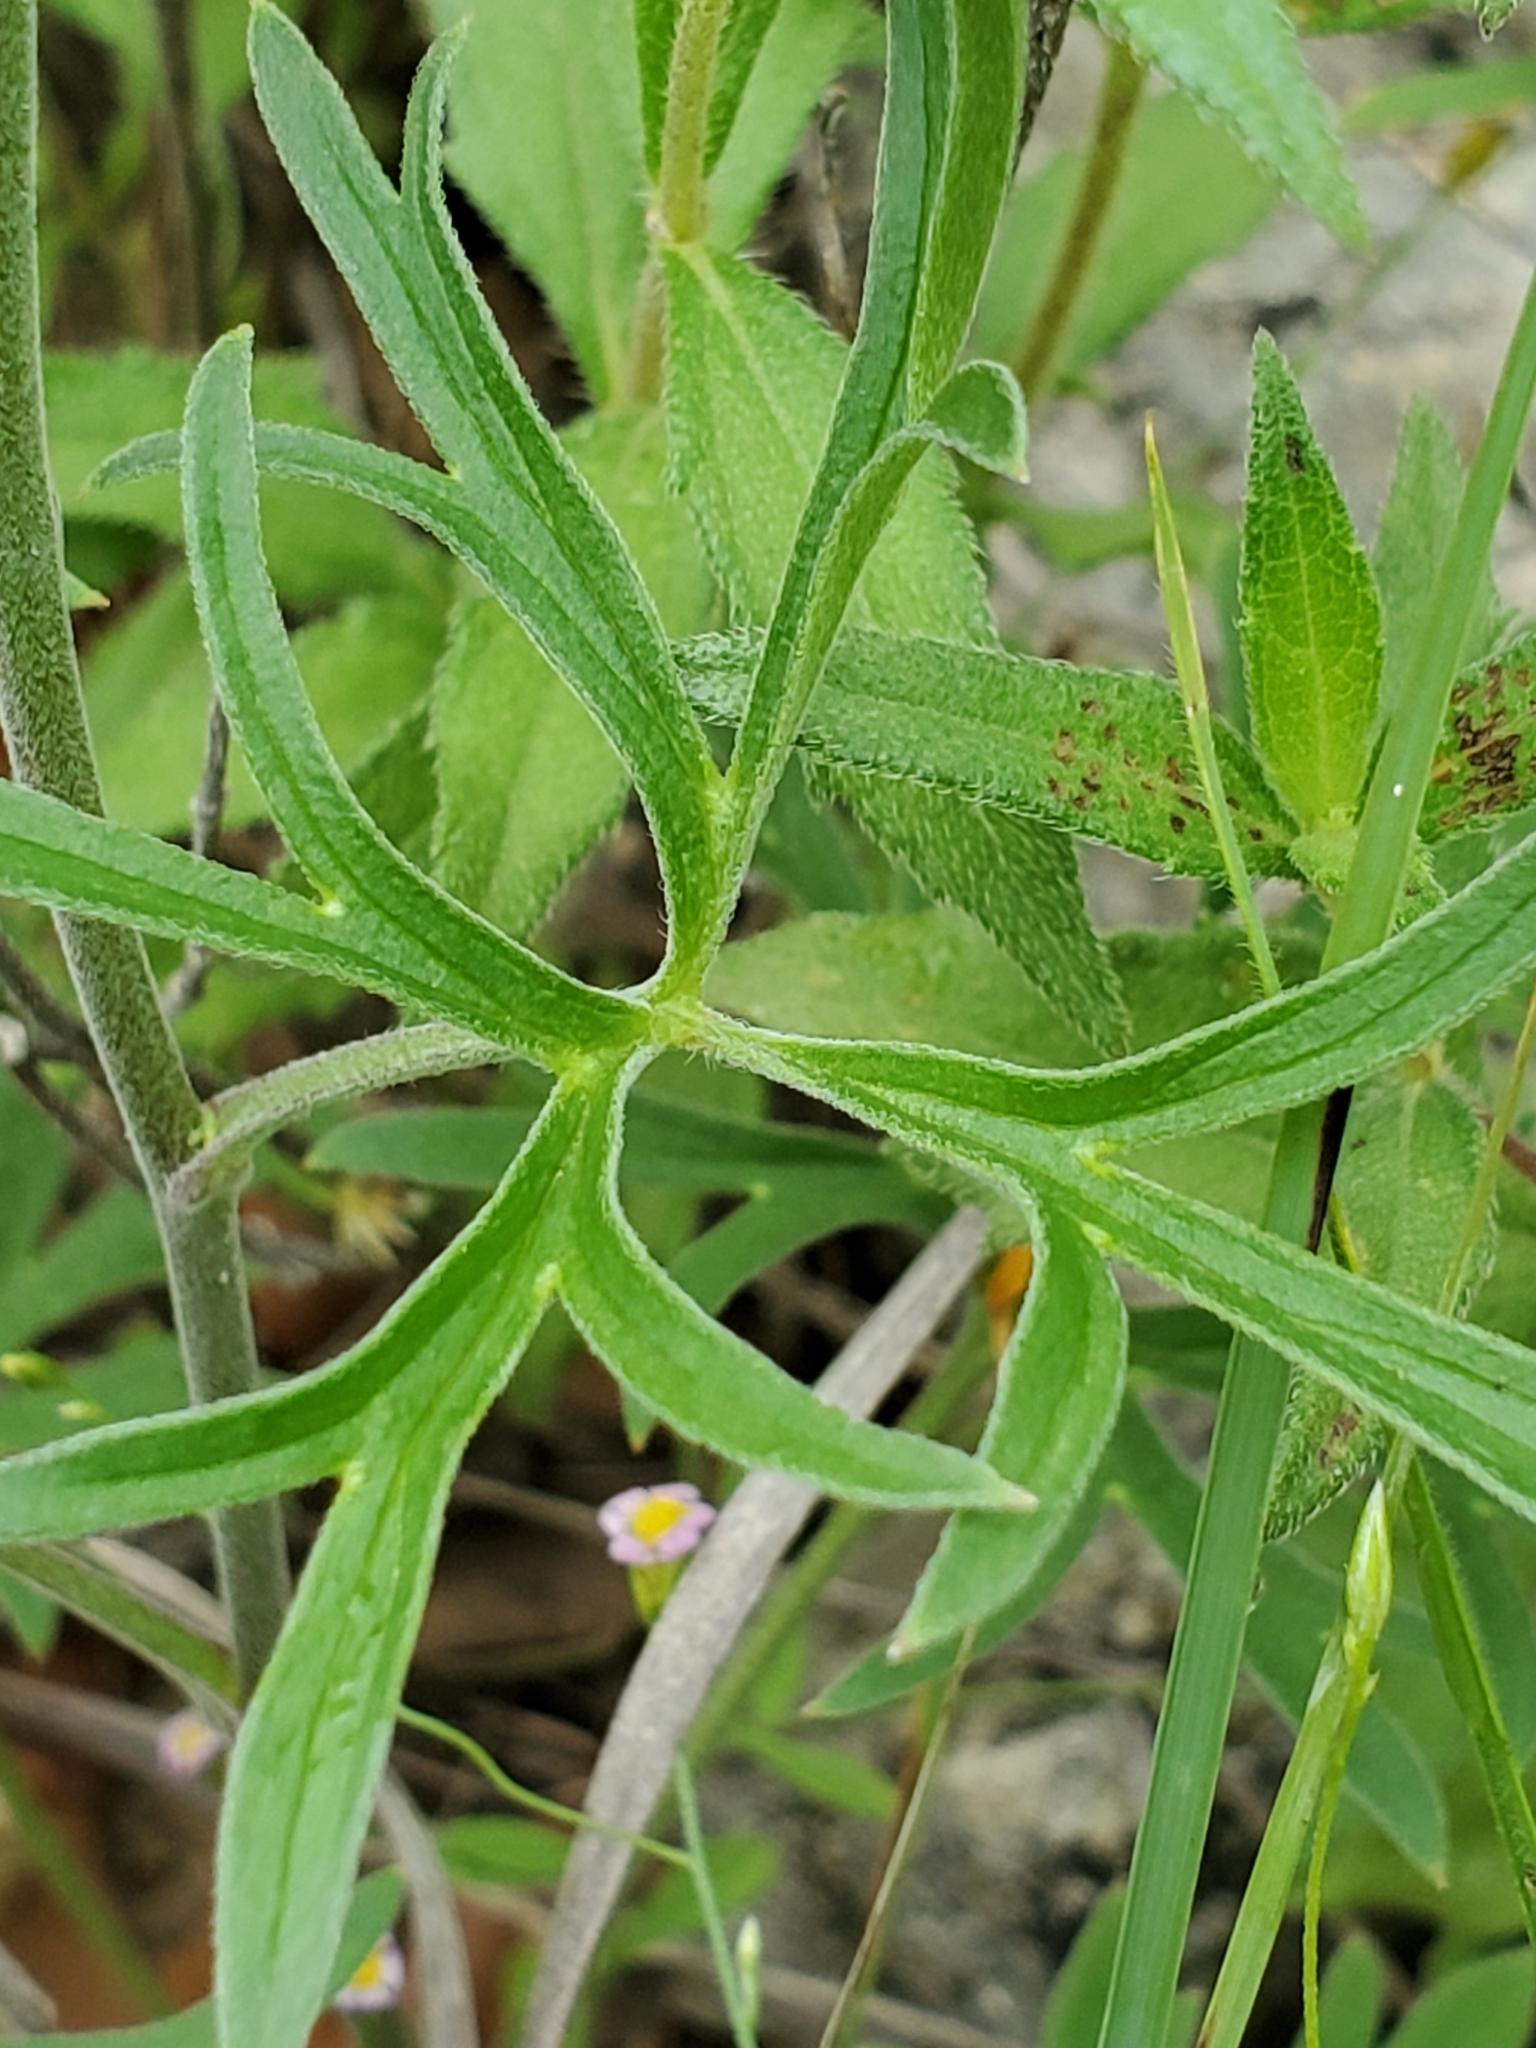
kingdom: Plantae
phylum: Tracheophyta
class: Magnoliopsida
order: Ranunculales
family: Ranunculaceae
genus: Delphinium
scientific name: Delphinium carolinianum
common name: Carolina larkspur
